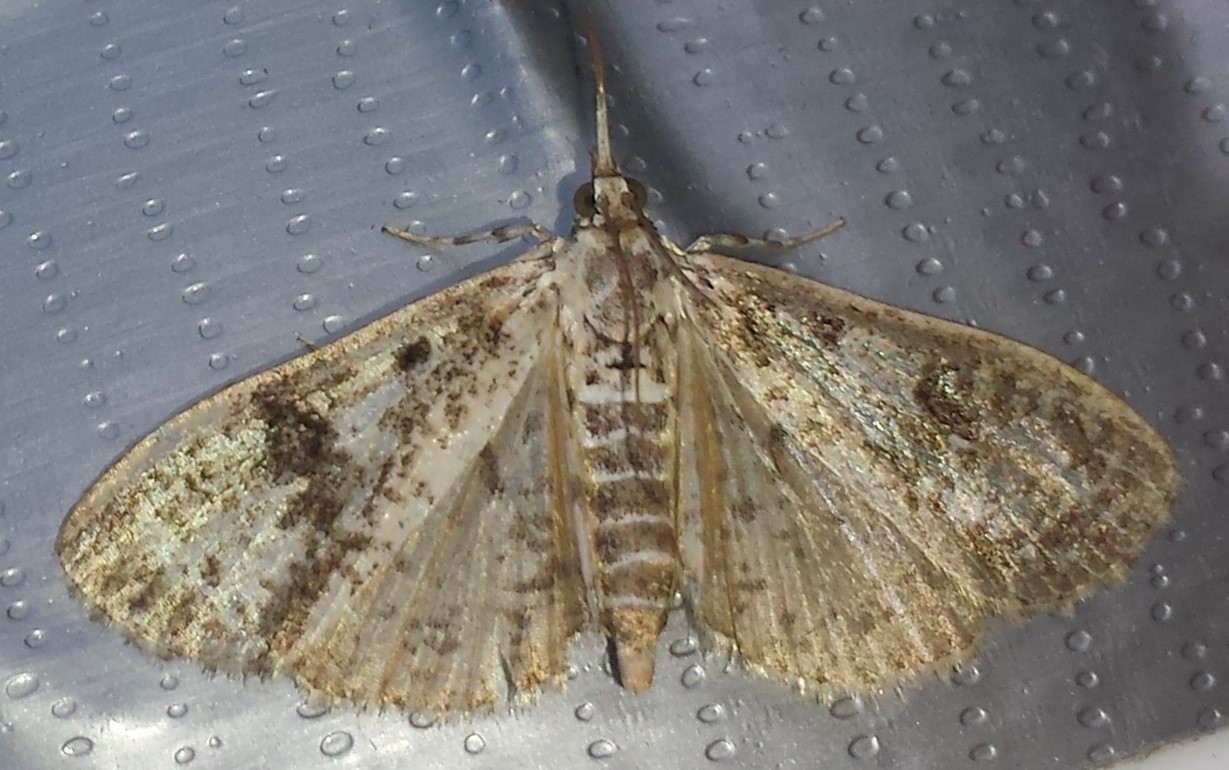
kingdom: Animalia
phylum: Arthropoda
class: Insecta
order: Lepidoptera
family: Crambidae
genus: Palpita
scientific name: Palpita magniferalis
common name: Splendid palpita moth
